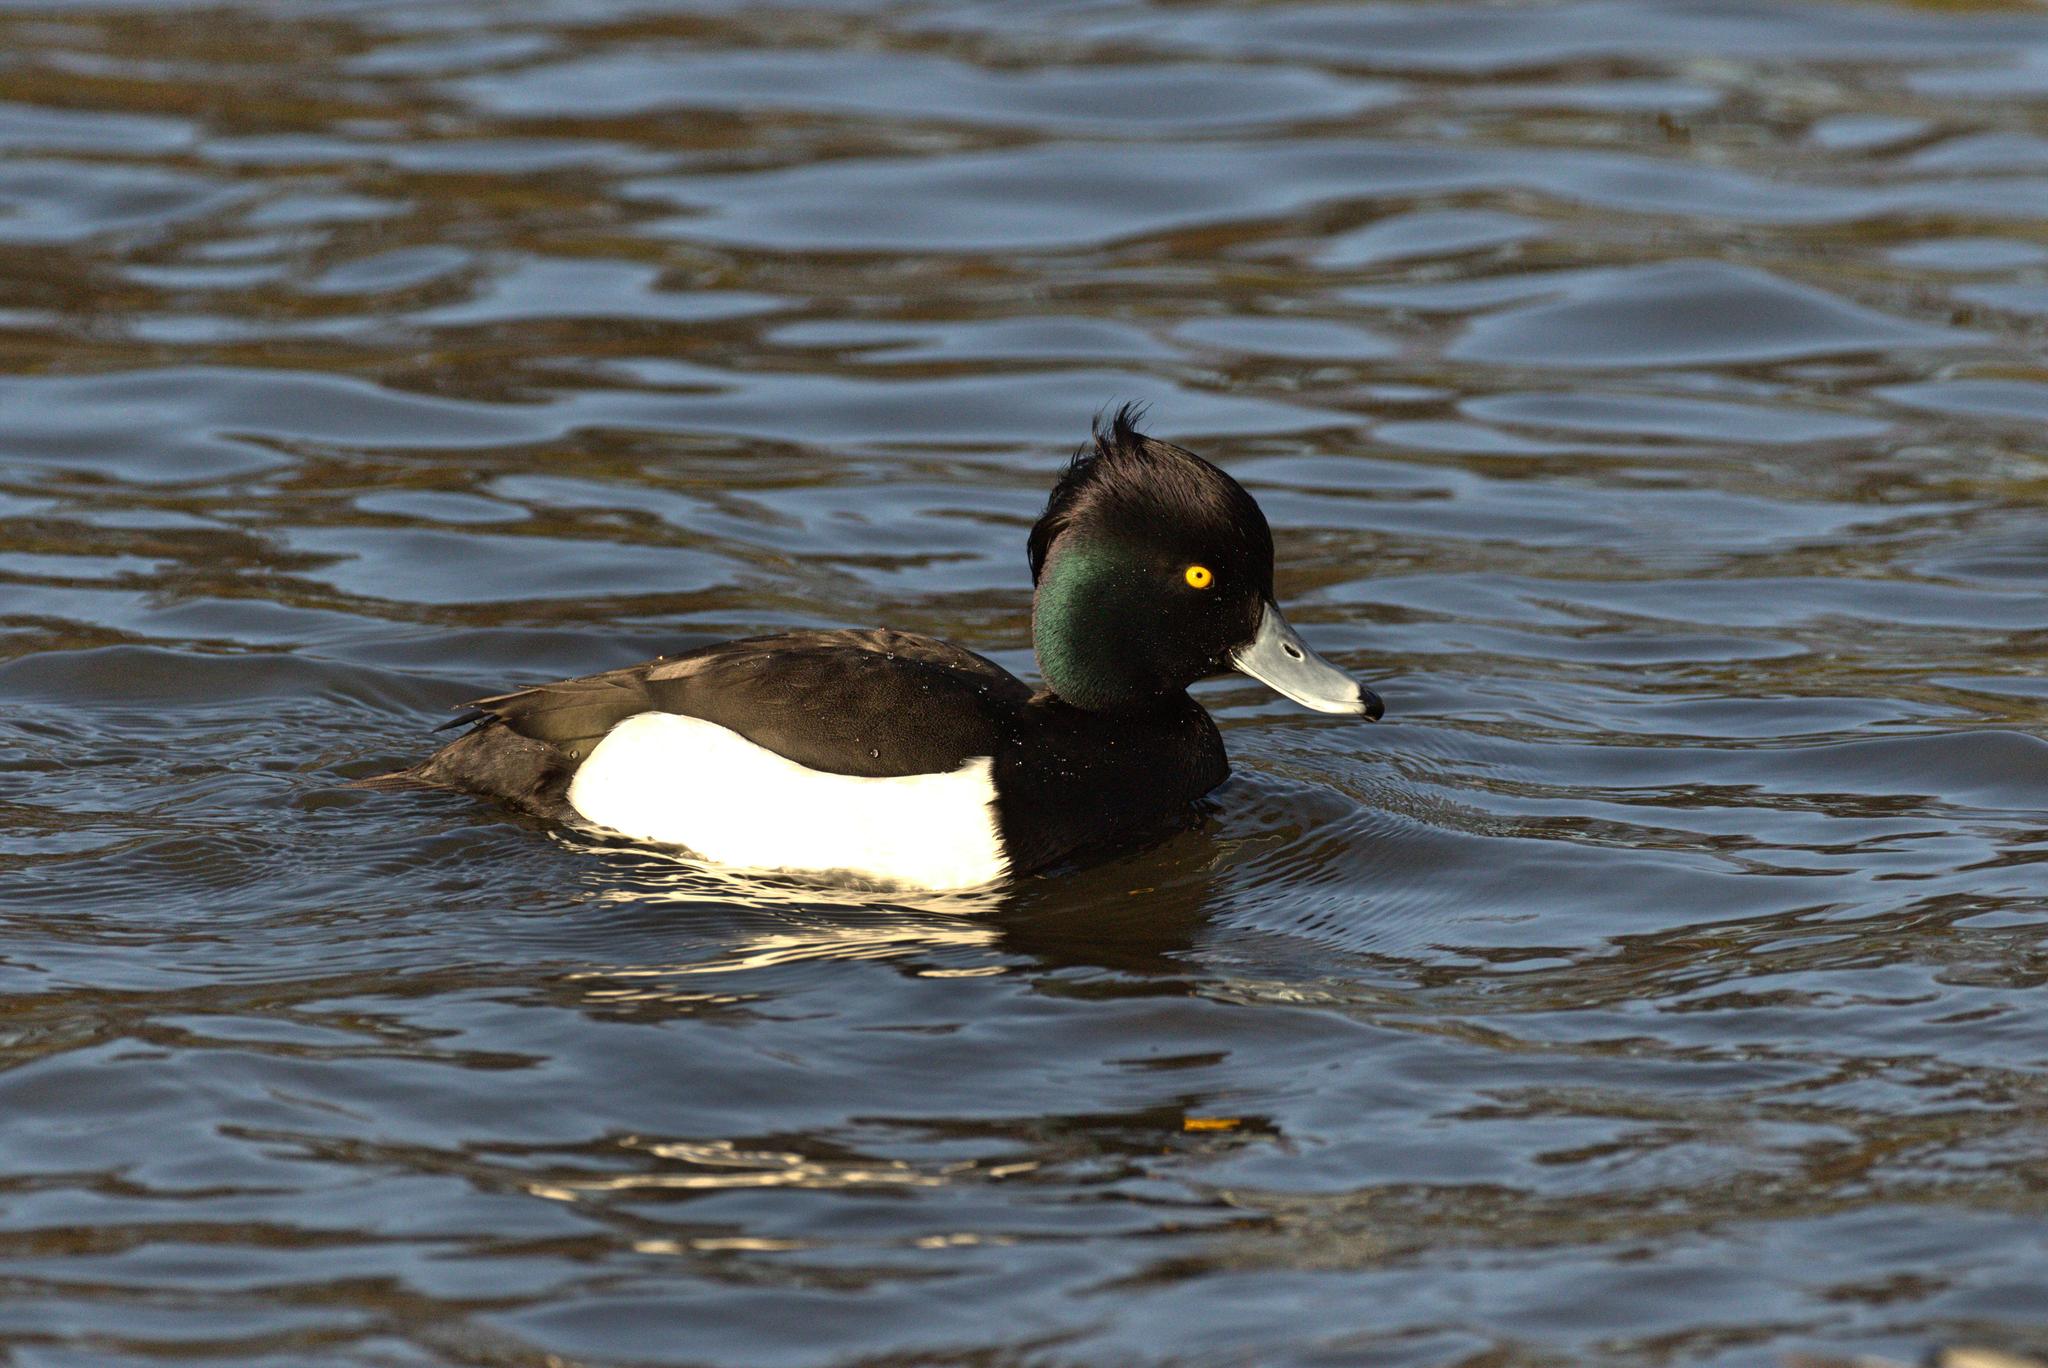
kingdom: Animalia
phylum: Chordata
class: Aves
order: Anseriformes
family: Anatidae
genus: Aythya
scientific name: Aythya fuligula
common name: Tufted duck
